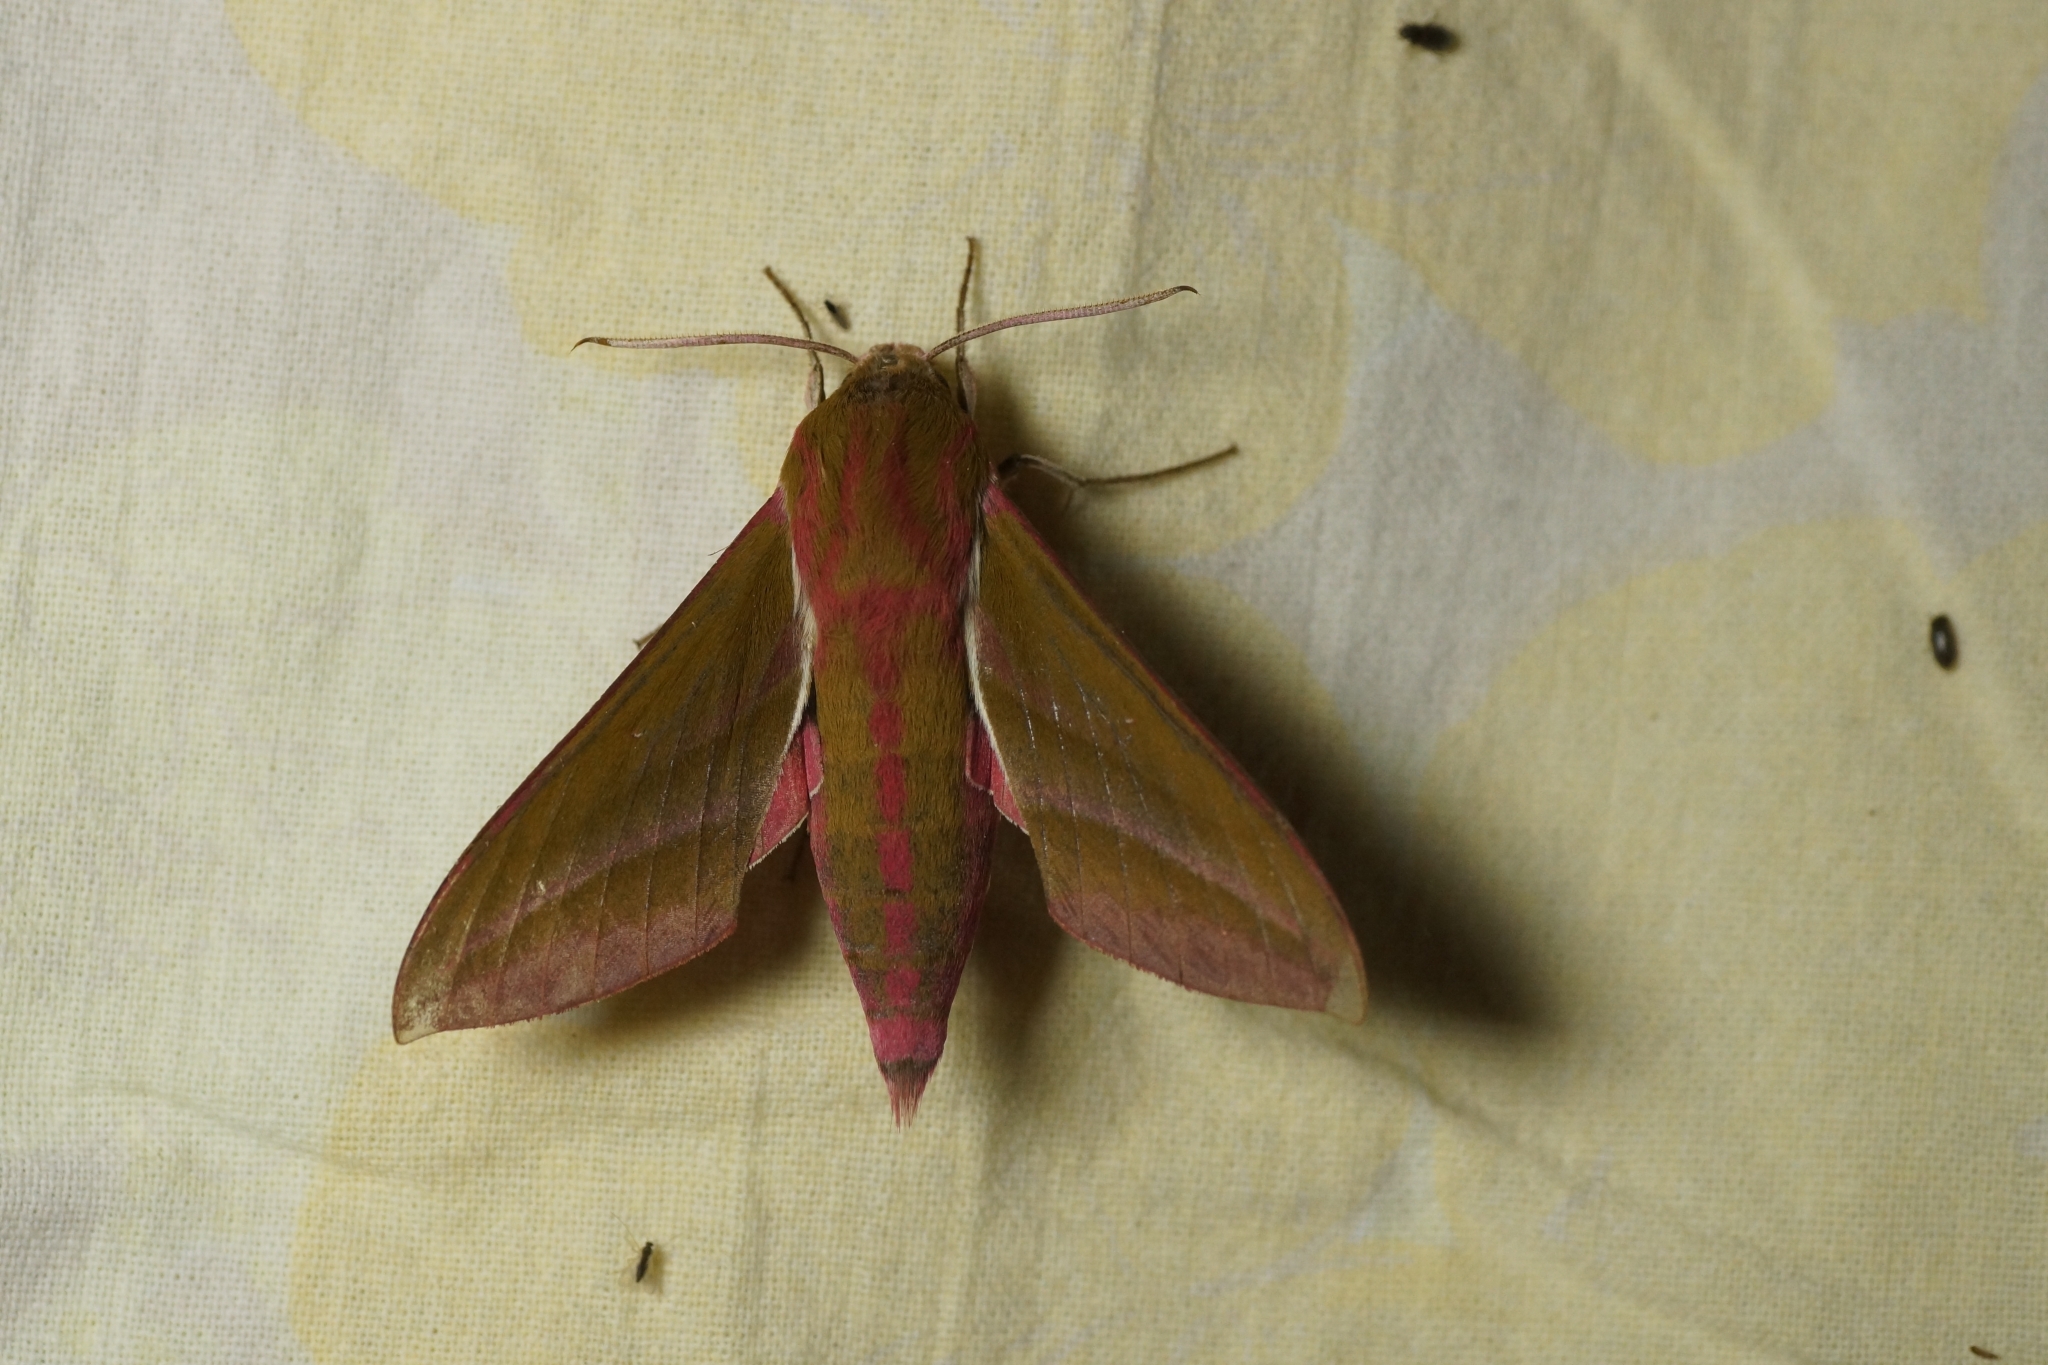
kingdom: Animalia
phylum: Arthropoda
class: Insecta
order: Lepidoptera
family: Sphingidae
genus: Deilephila
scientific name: Deilephila elpenor
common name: Elephant hawk-moth
